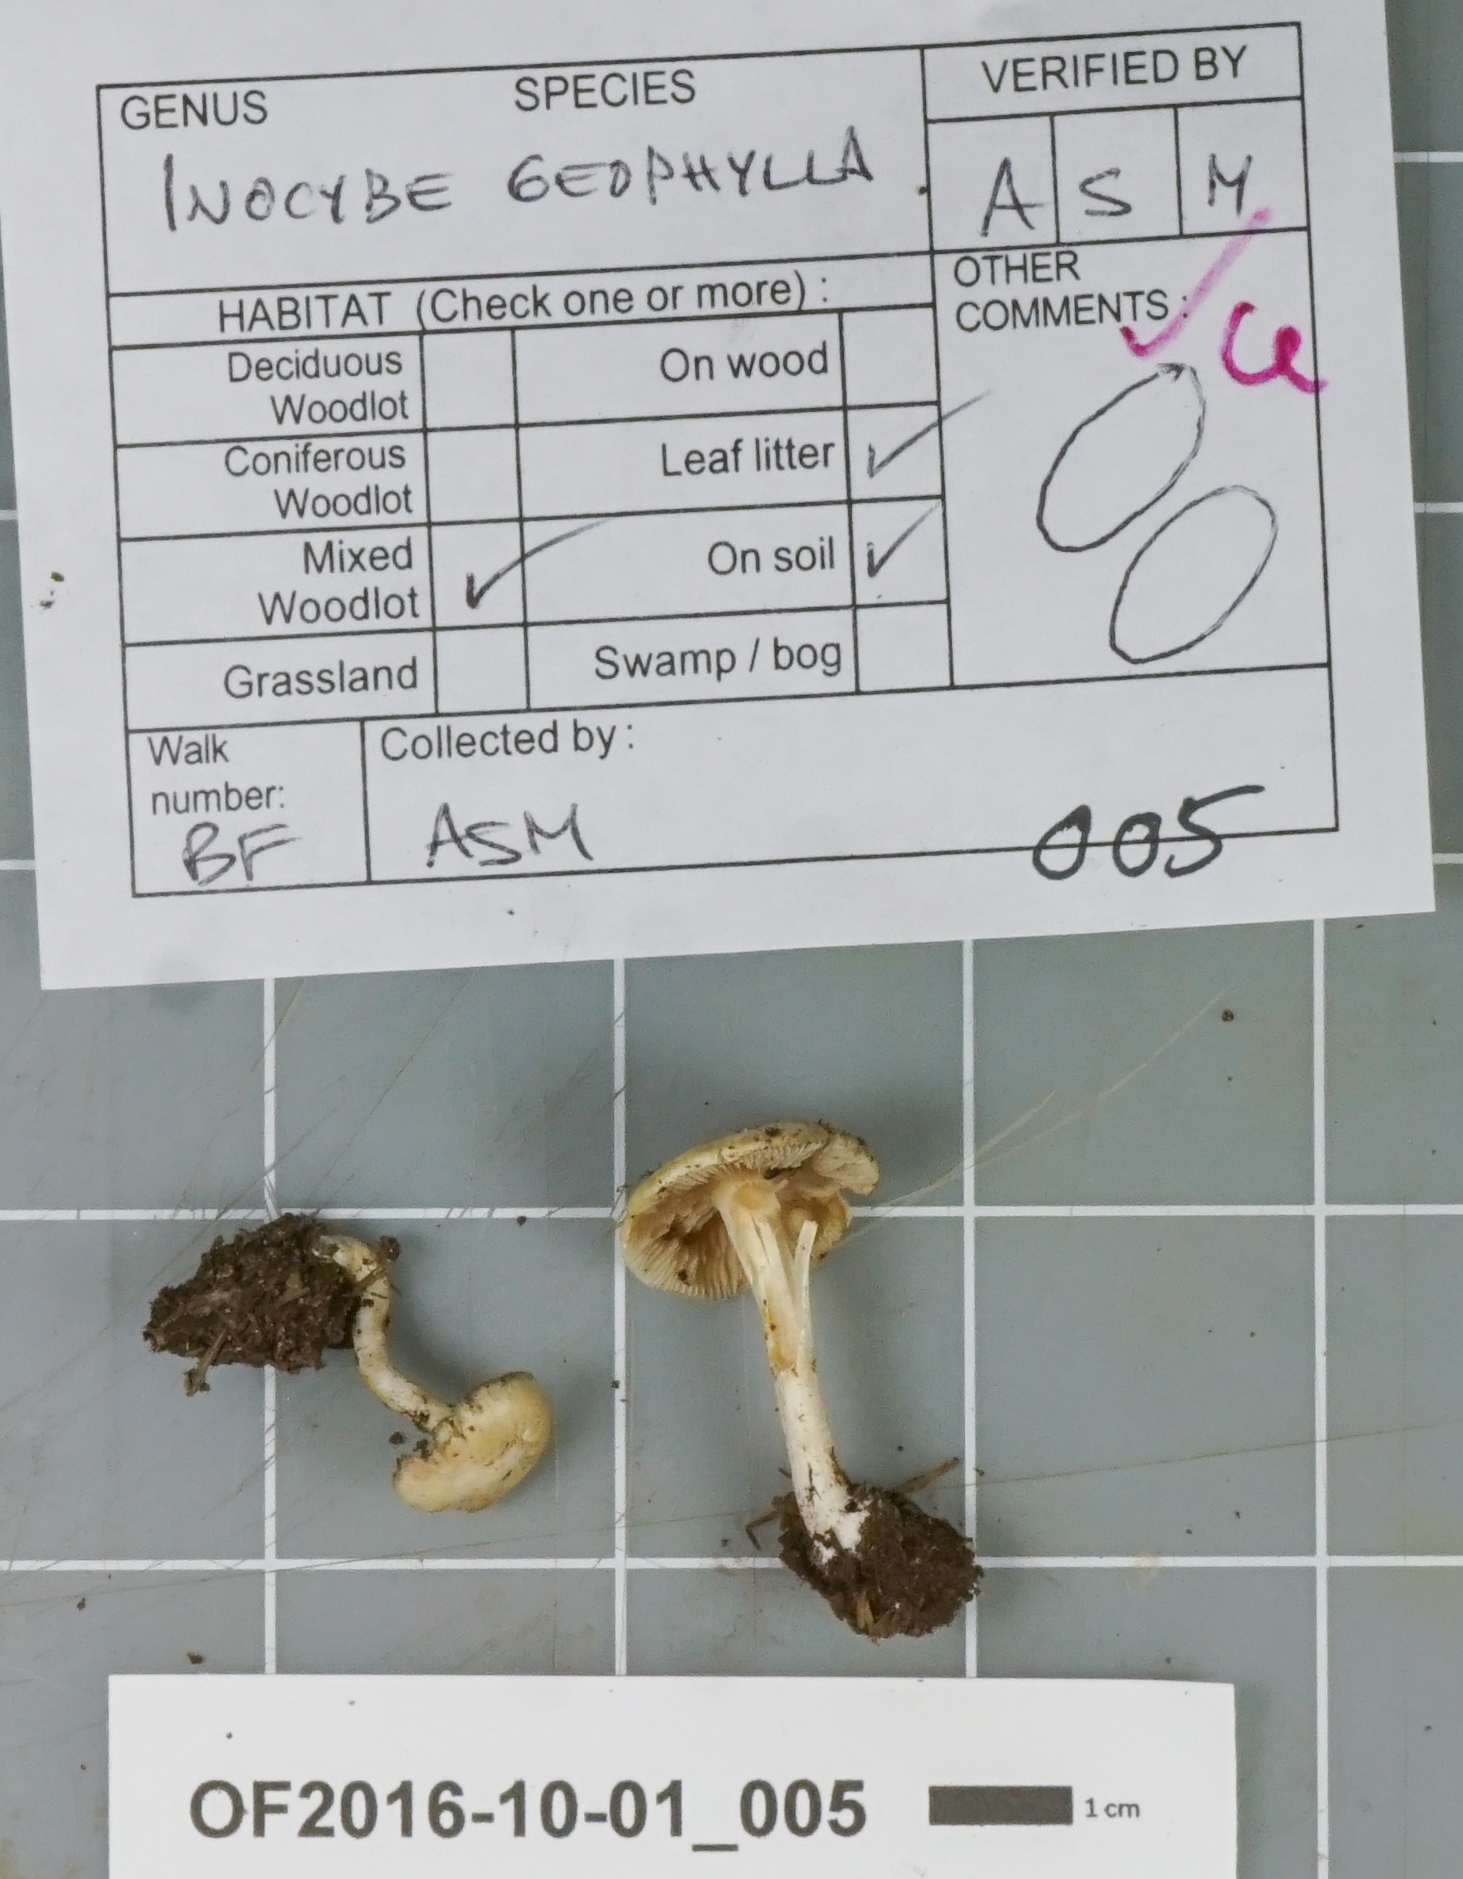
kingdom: Fungi
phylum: Basidiomycota
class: Agaricomycetes
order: Agaricales
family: Inocybaceae
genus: Inocybe
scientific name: Inocybe geophylla
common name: White fibrecap
